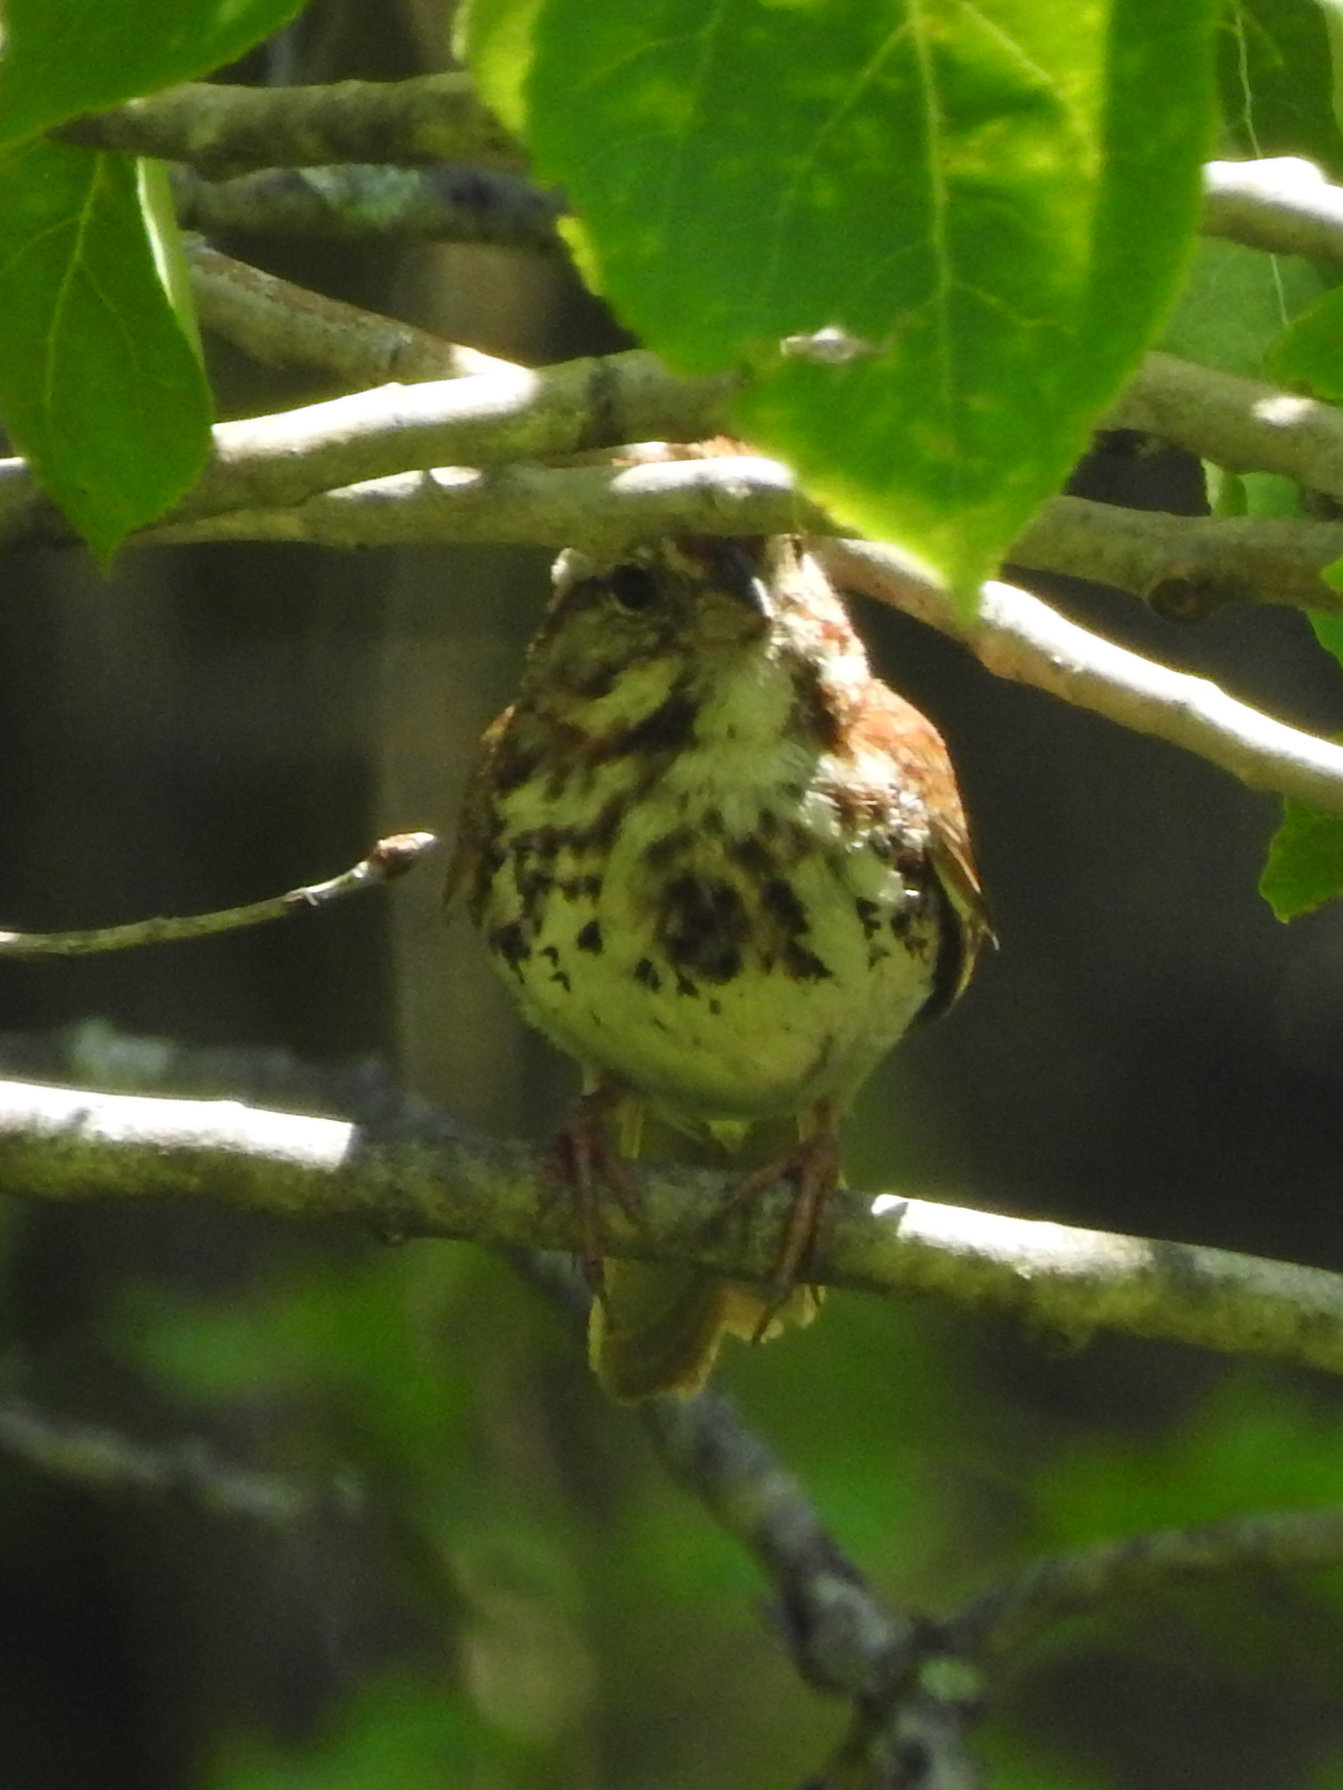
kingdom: Animalia
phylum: Chordata
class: Aves
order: Passeriformes
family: Passerellidae
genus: Melospiza
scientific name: Melospiza melodia
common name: Song sparrow
